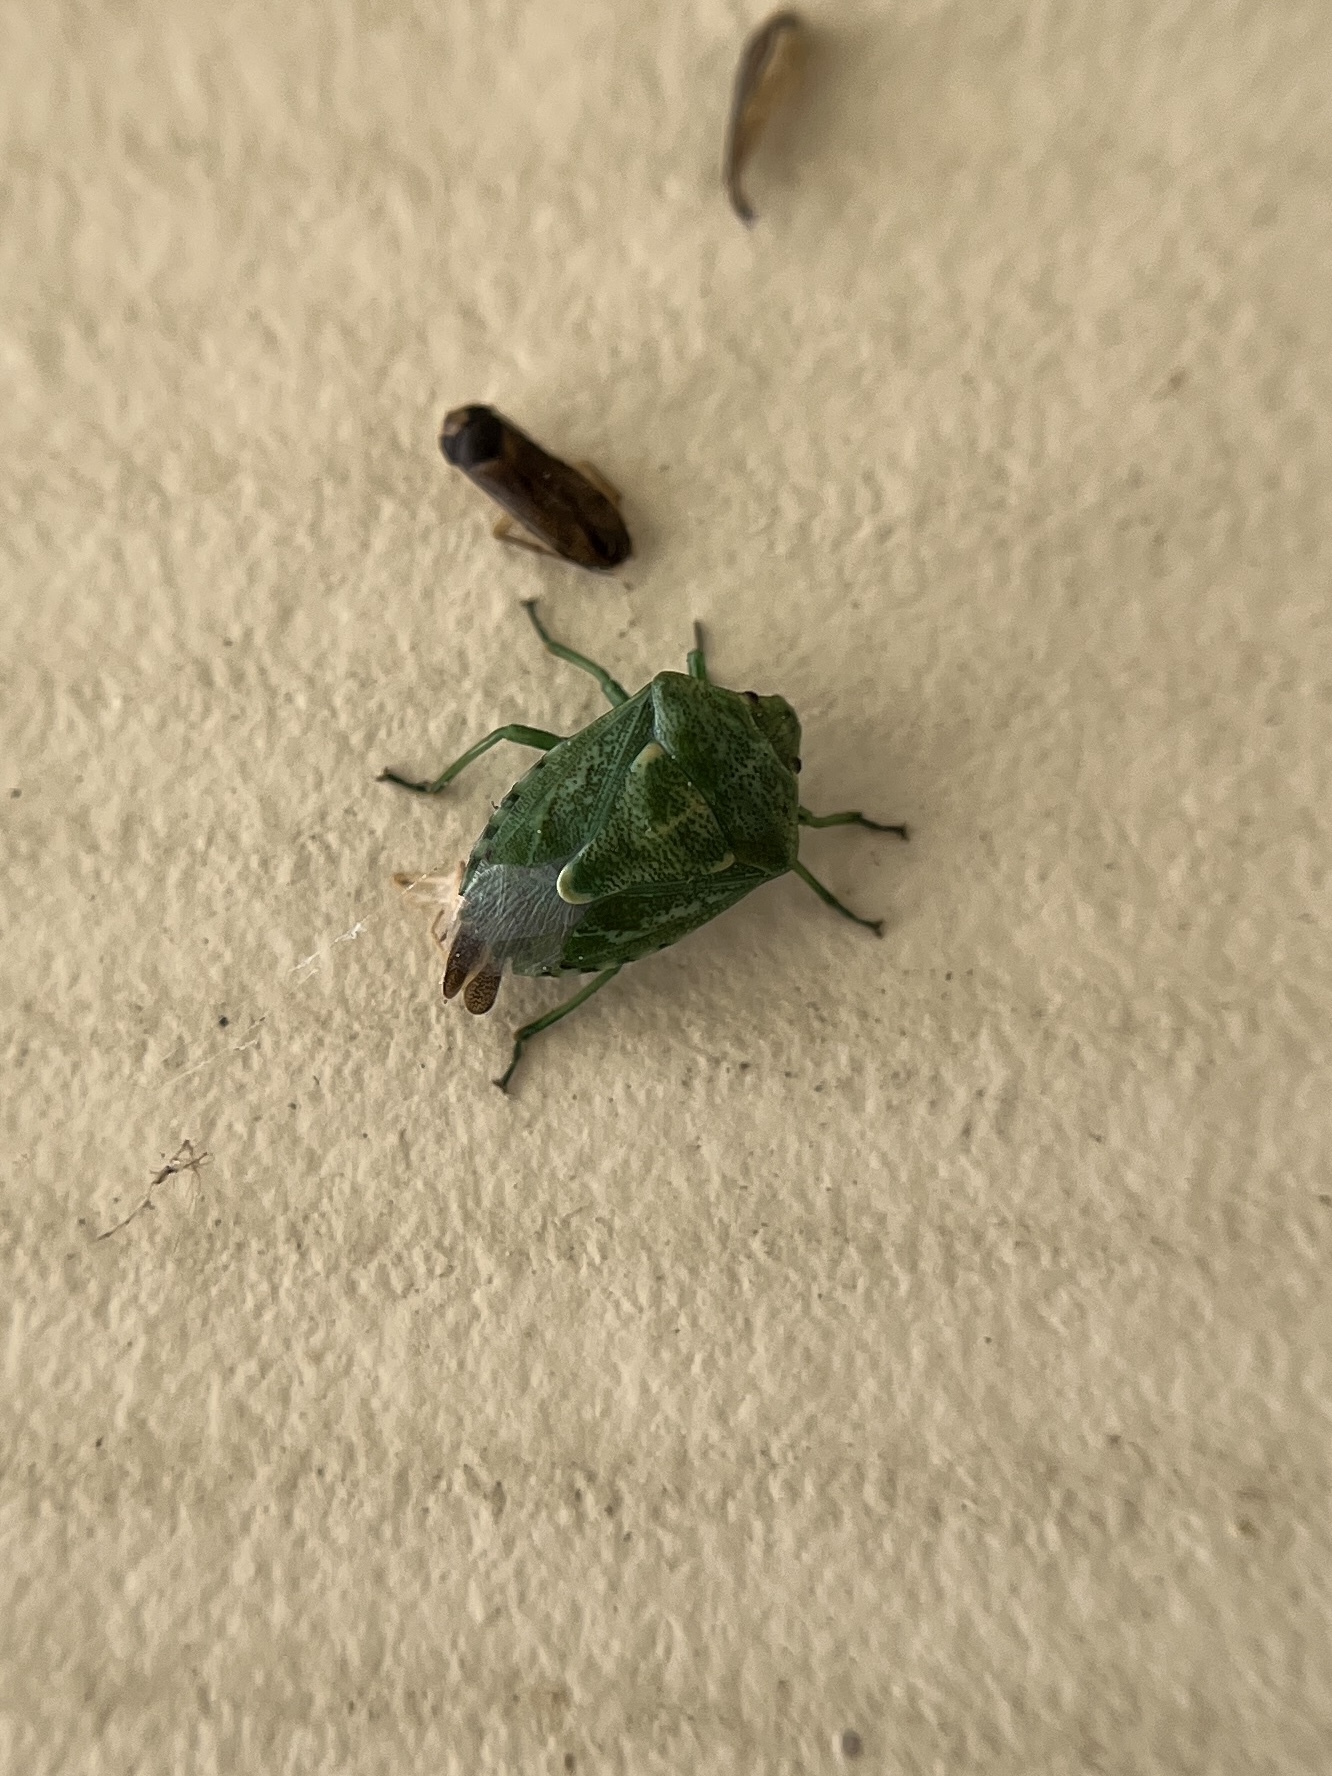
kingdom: Animalia
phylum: Arthropoda
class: Insecta
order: Hemiptera
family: Pentatomidae
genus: Banasa
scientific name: Banasa euchlora
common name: Cedar berry bug
